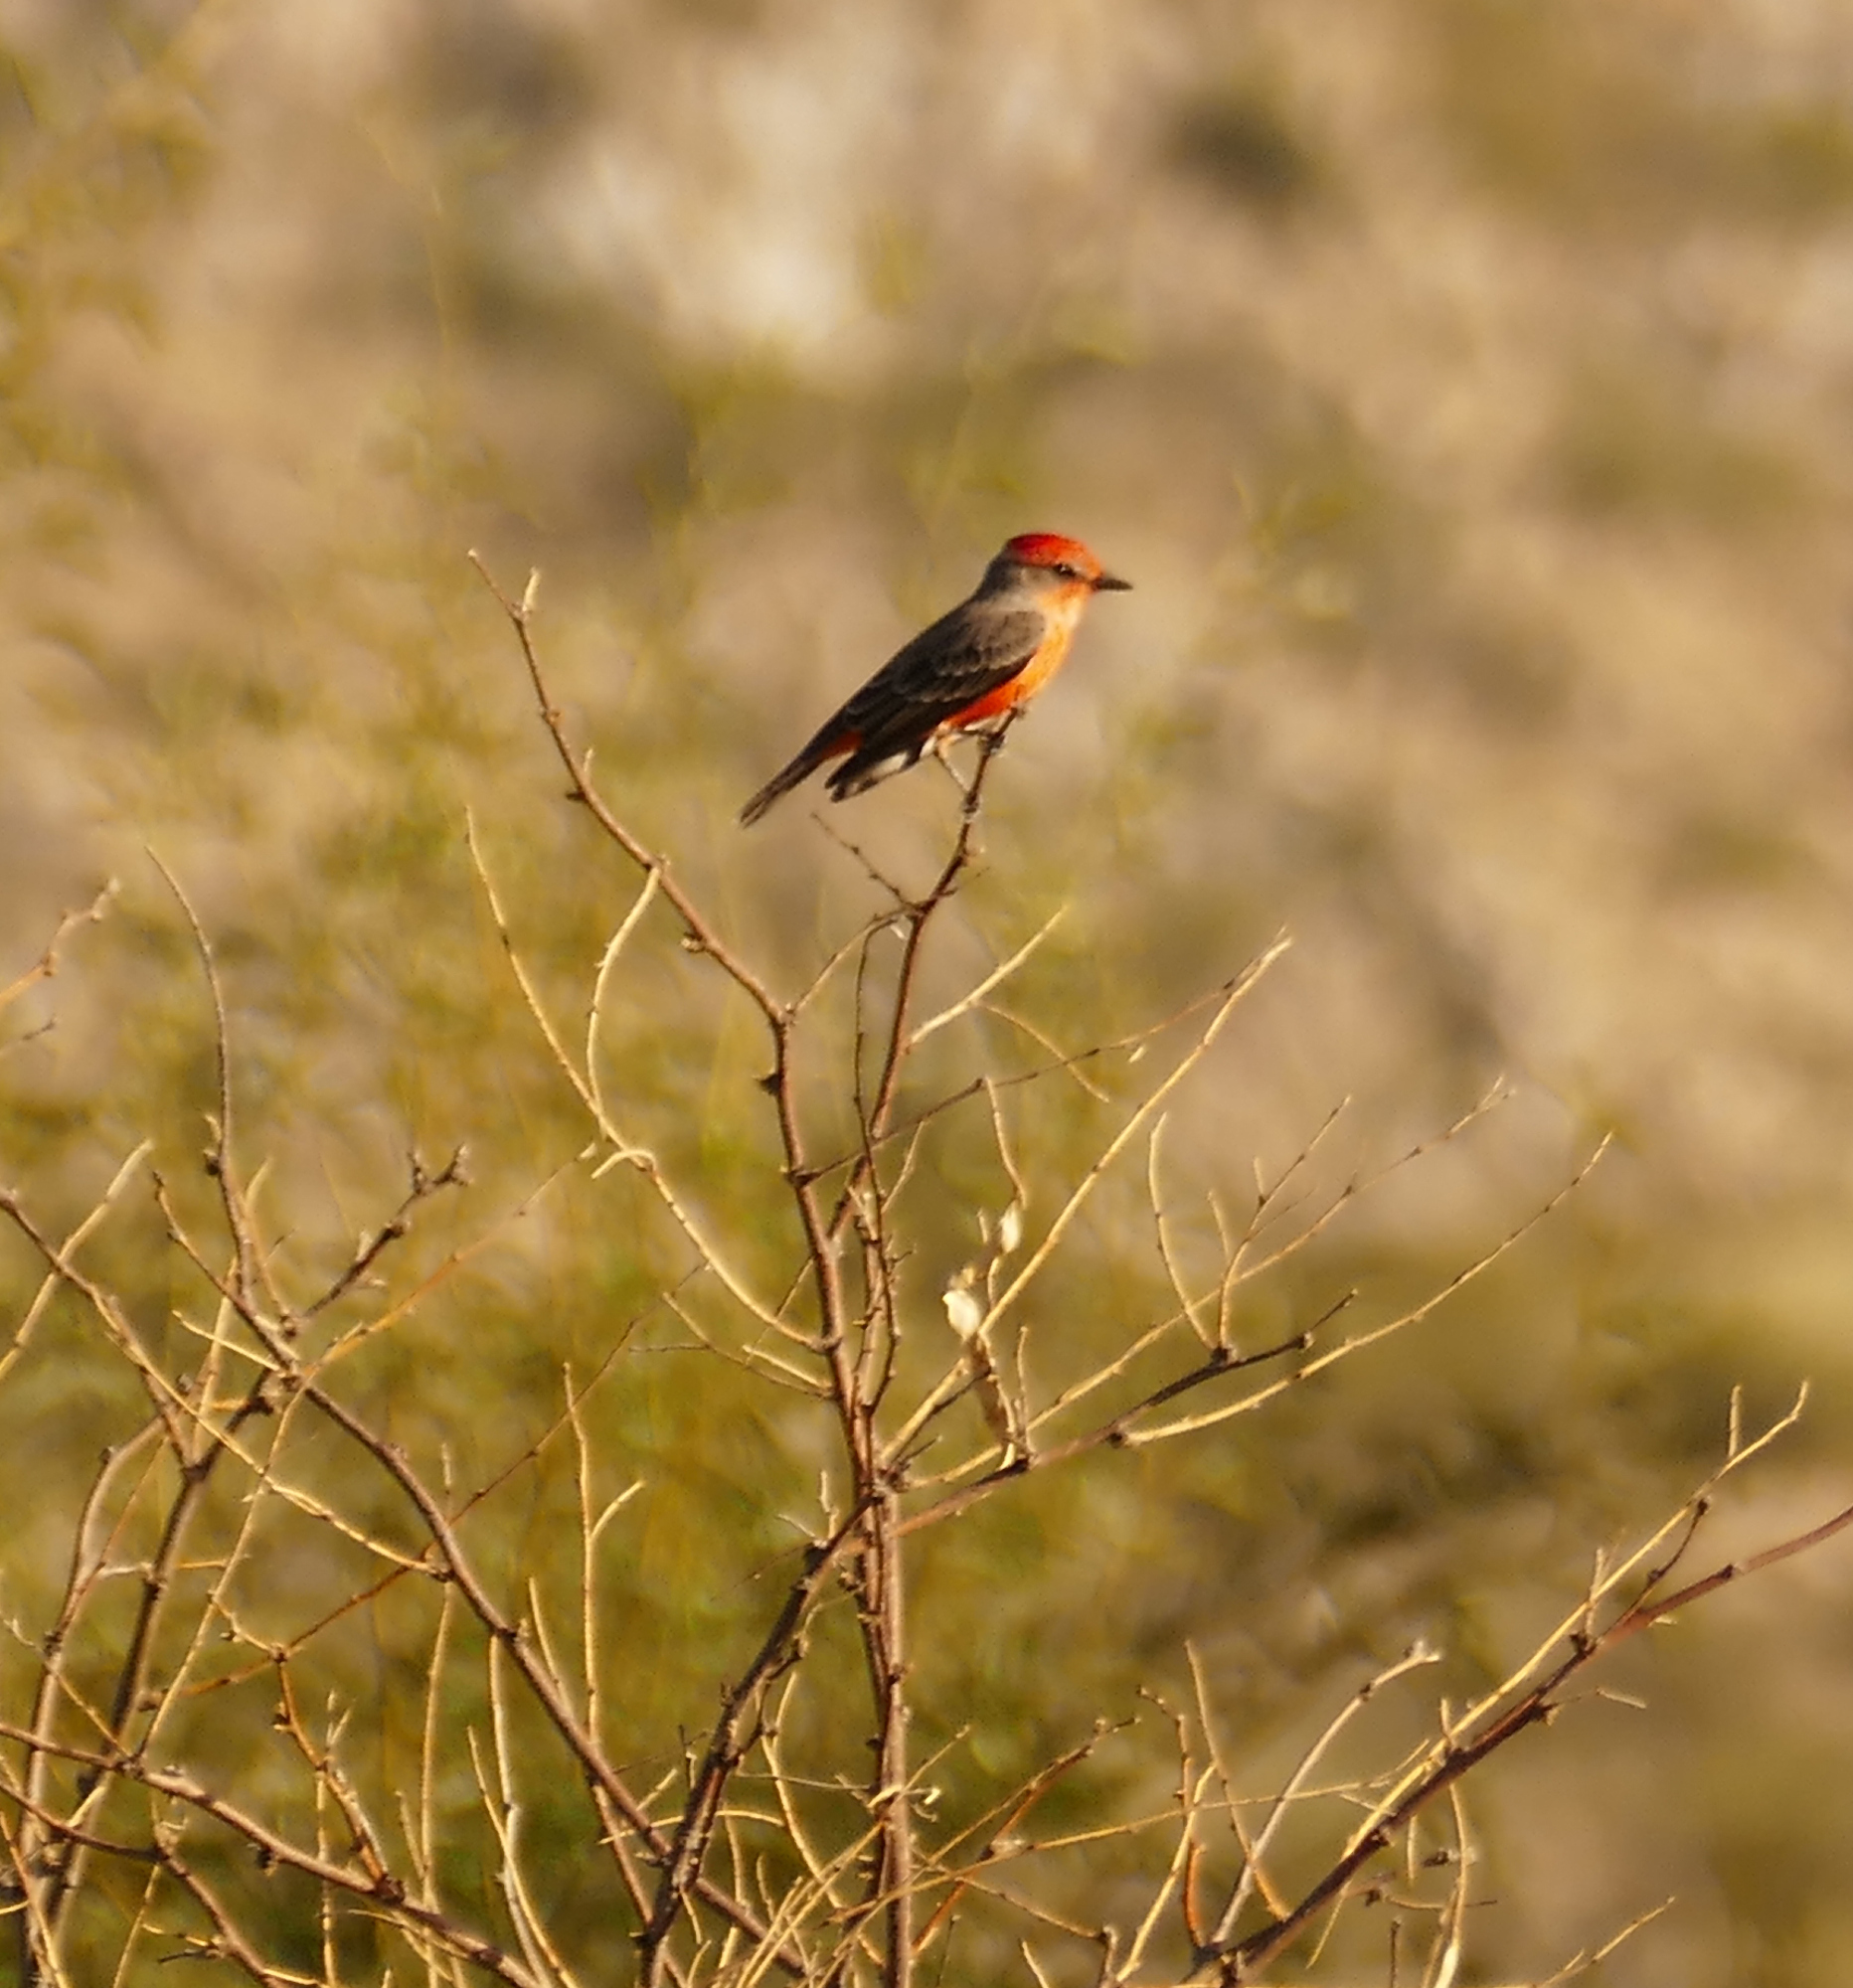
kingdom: Animalia
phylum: Chordata
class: Aves
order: Passeriformes
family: Tyrannidae
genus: Pyrocephalus
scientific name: Pyrocephalus rubinus
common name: Vermilion flycatcher
